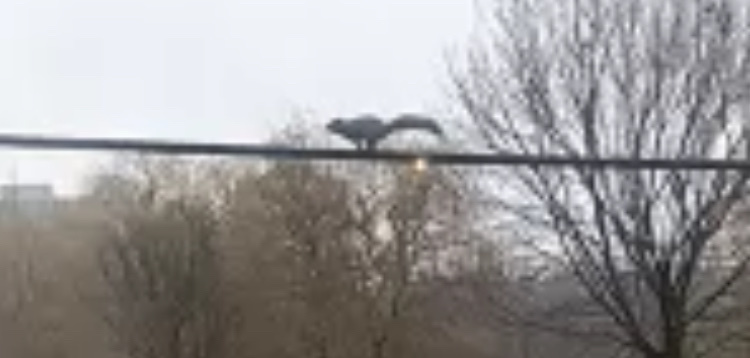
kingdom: Animalia
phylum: Chordata
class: Mammalia
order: Rodentia
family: Sciuridae
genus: Sciurus
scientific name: Sciurus carolinensis
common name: Eastern gray squirrel
